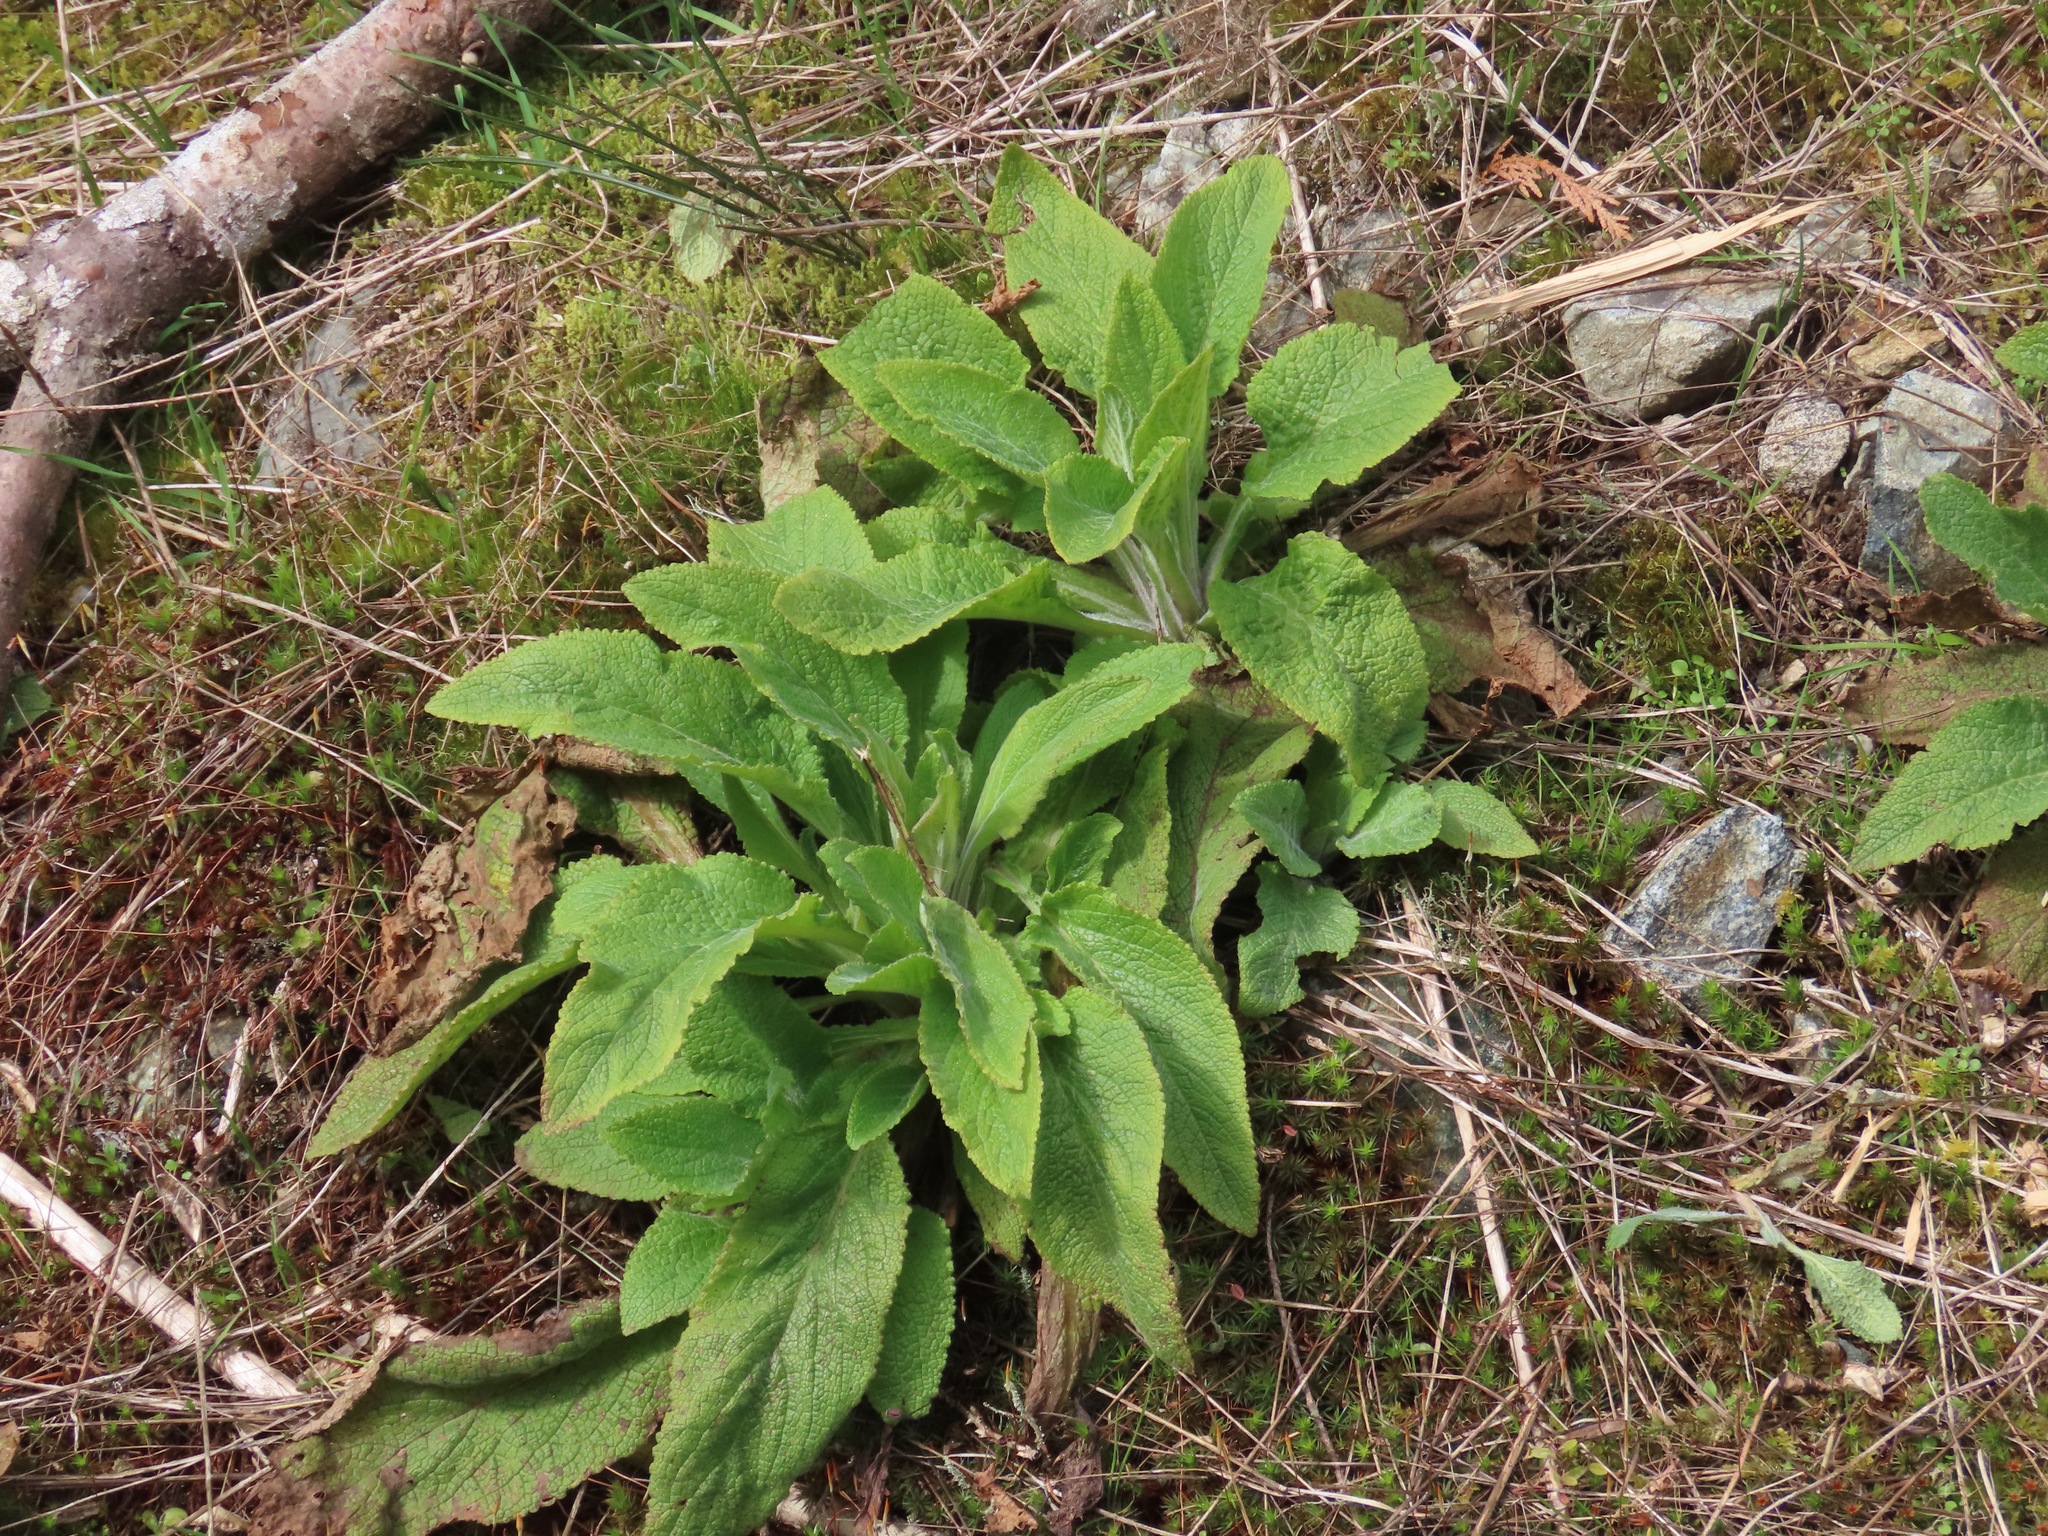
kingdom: Plantae
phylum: Tracheophyta
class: Magnoliopsida
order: Lamiales
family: Plantaginaceae
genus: Digitalis
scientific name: Digitalis purpurea
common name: Foxglove
